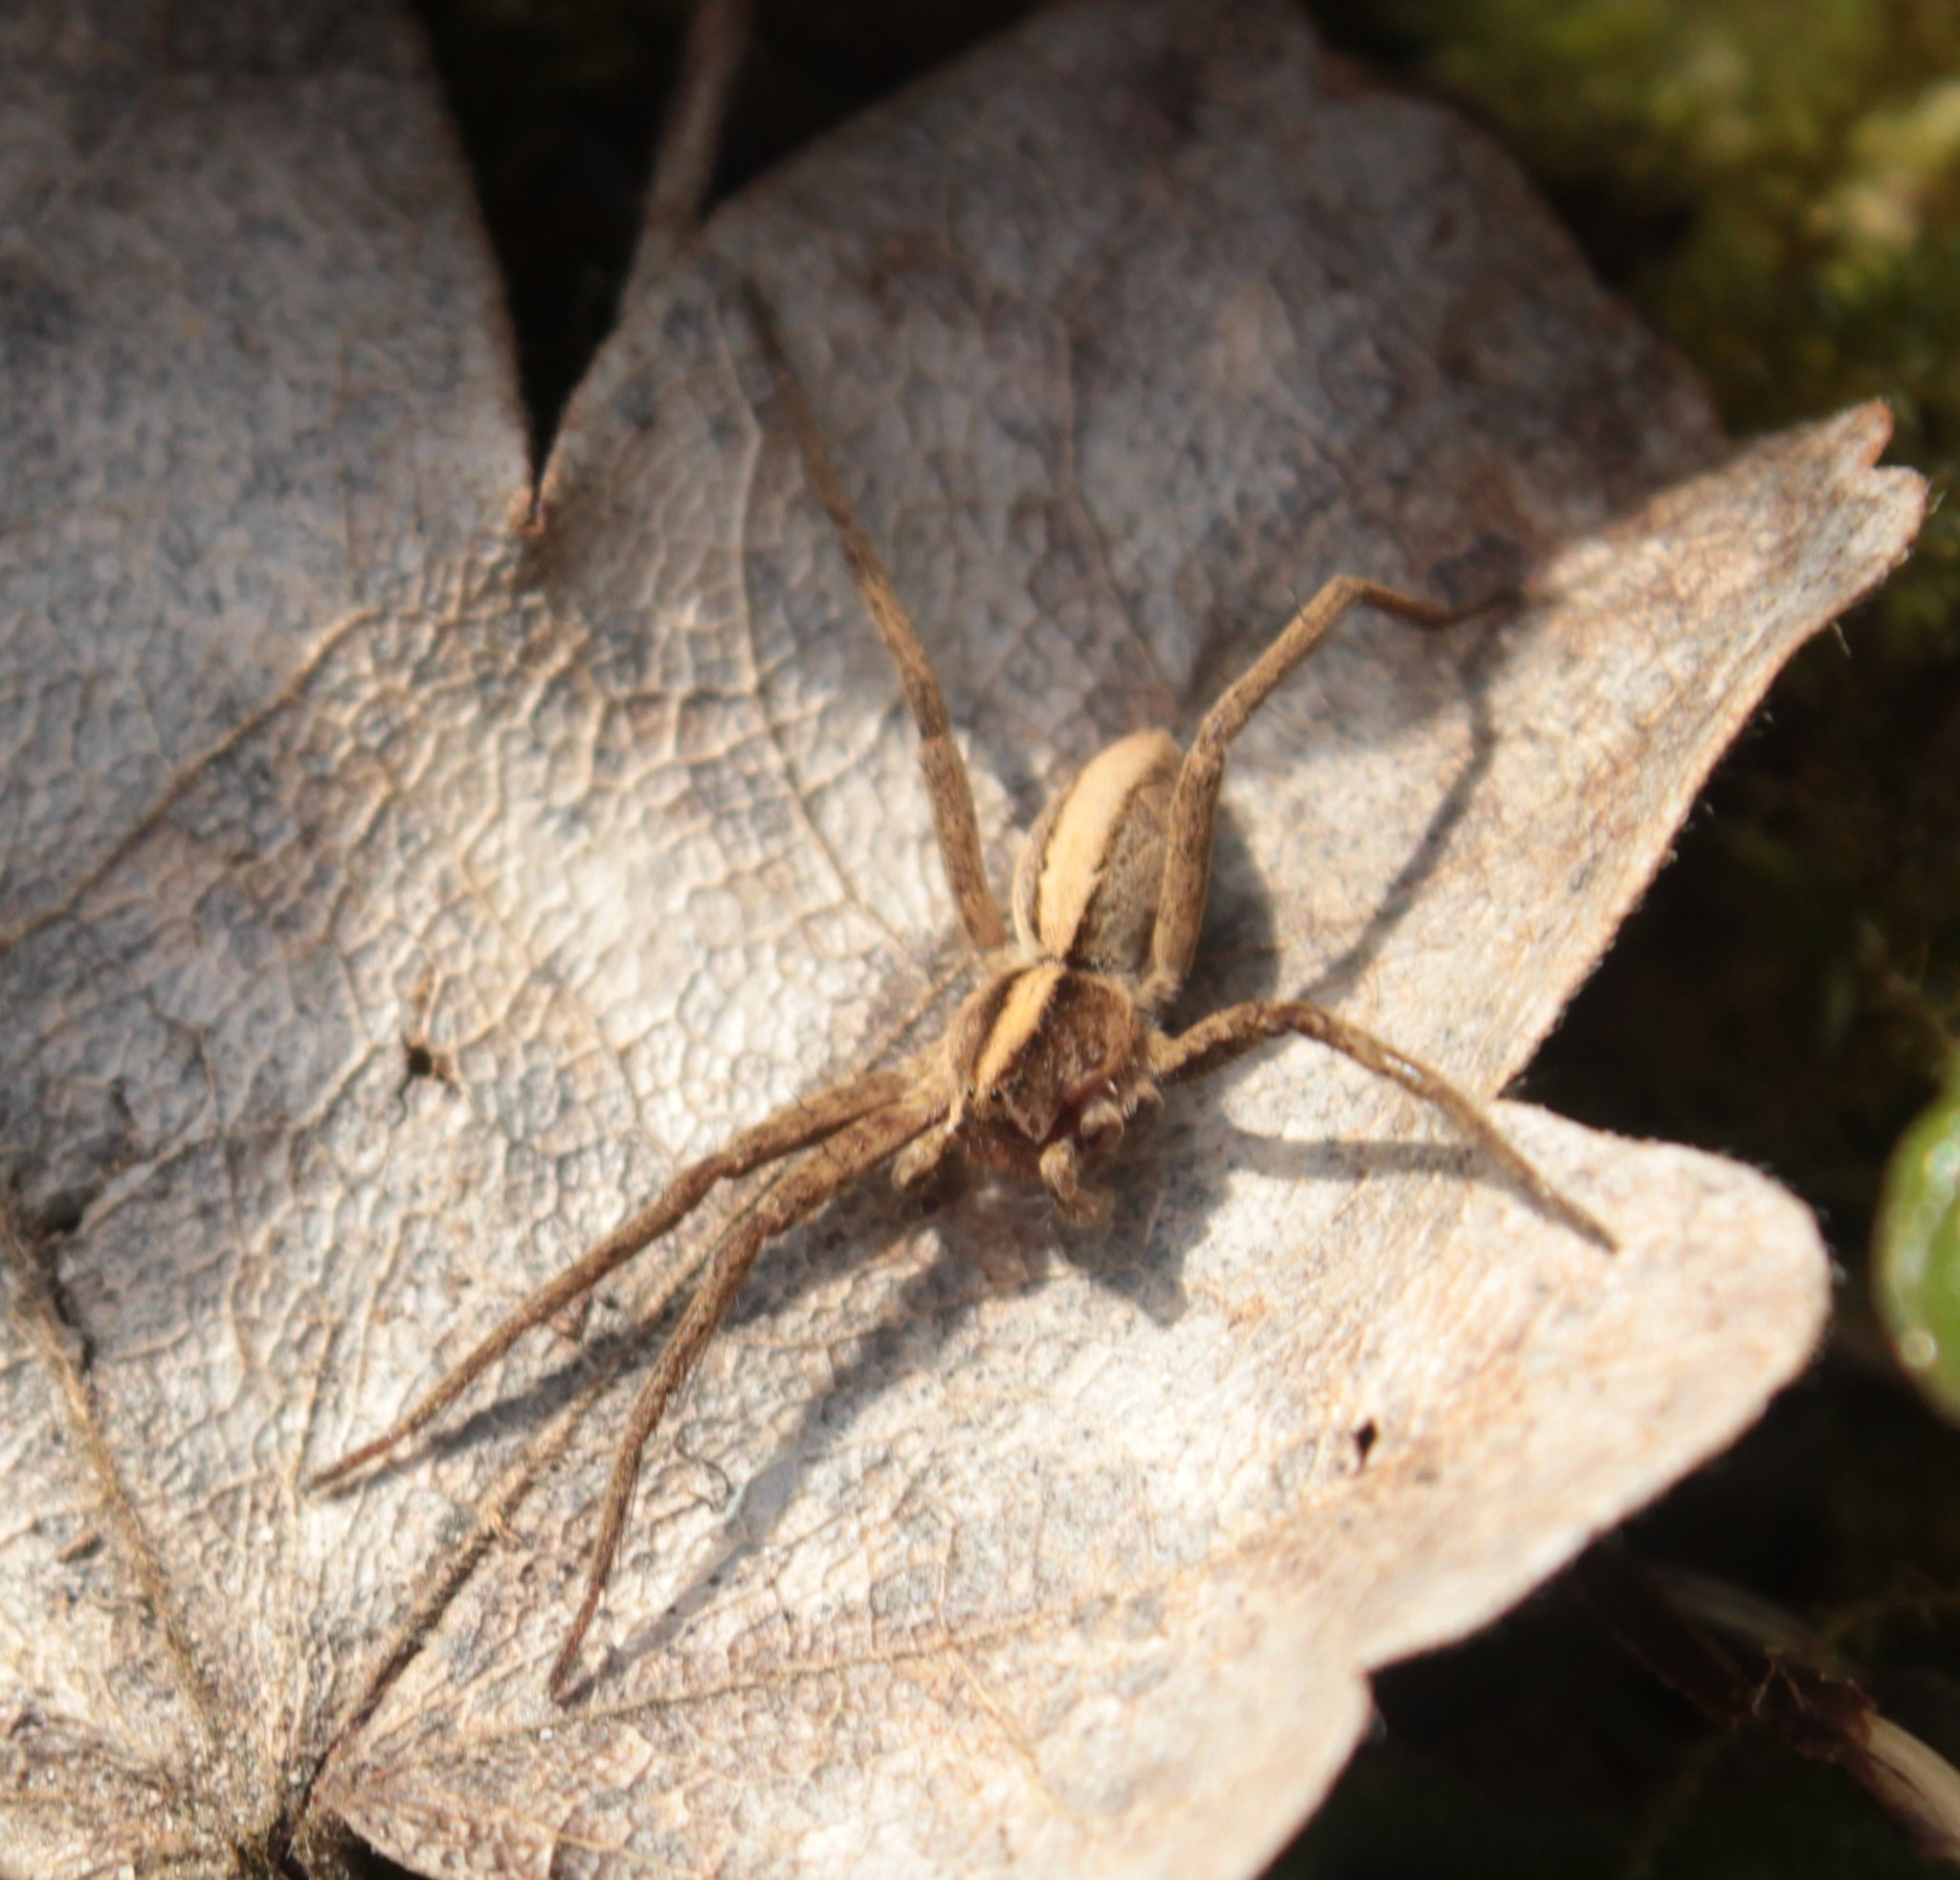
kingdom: Animalia
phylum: Arthropoda
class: Arachnida
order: Araneae
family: Pisauridae
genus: Pisaura
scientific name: Pisaura mirabilis
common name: Tent spider
